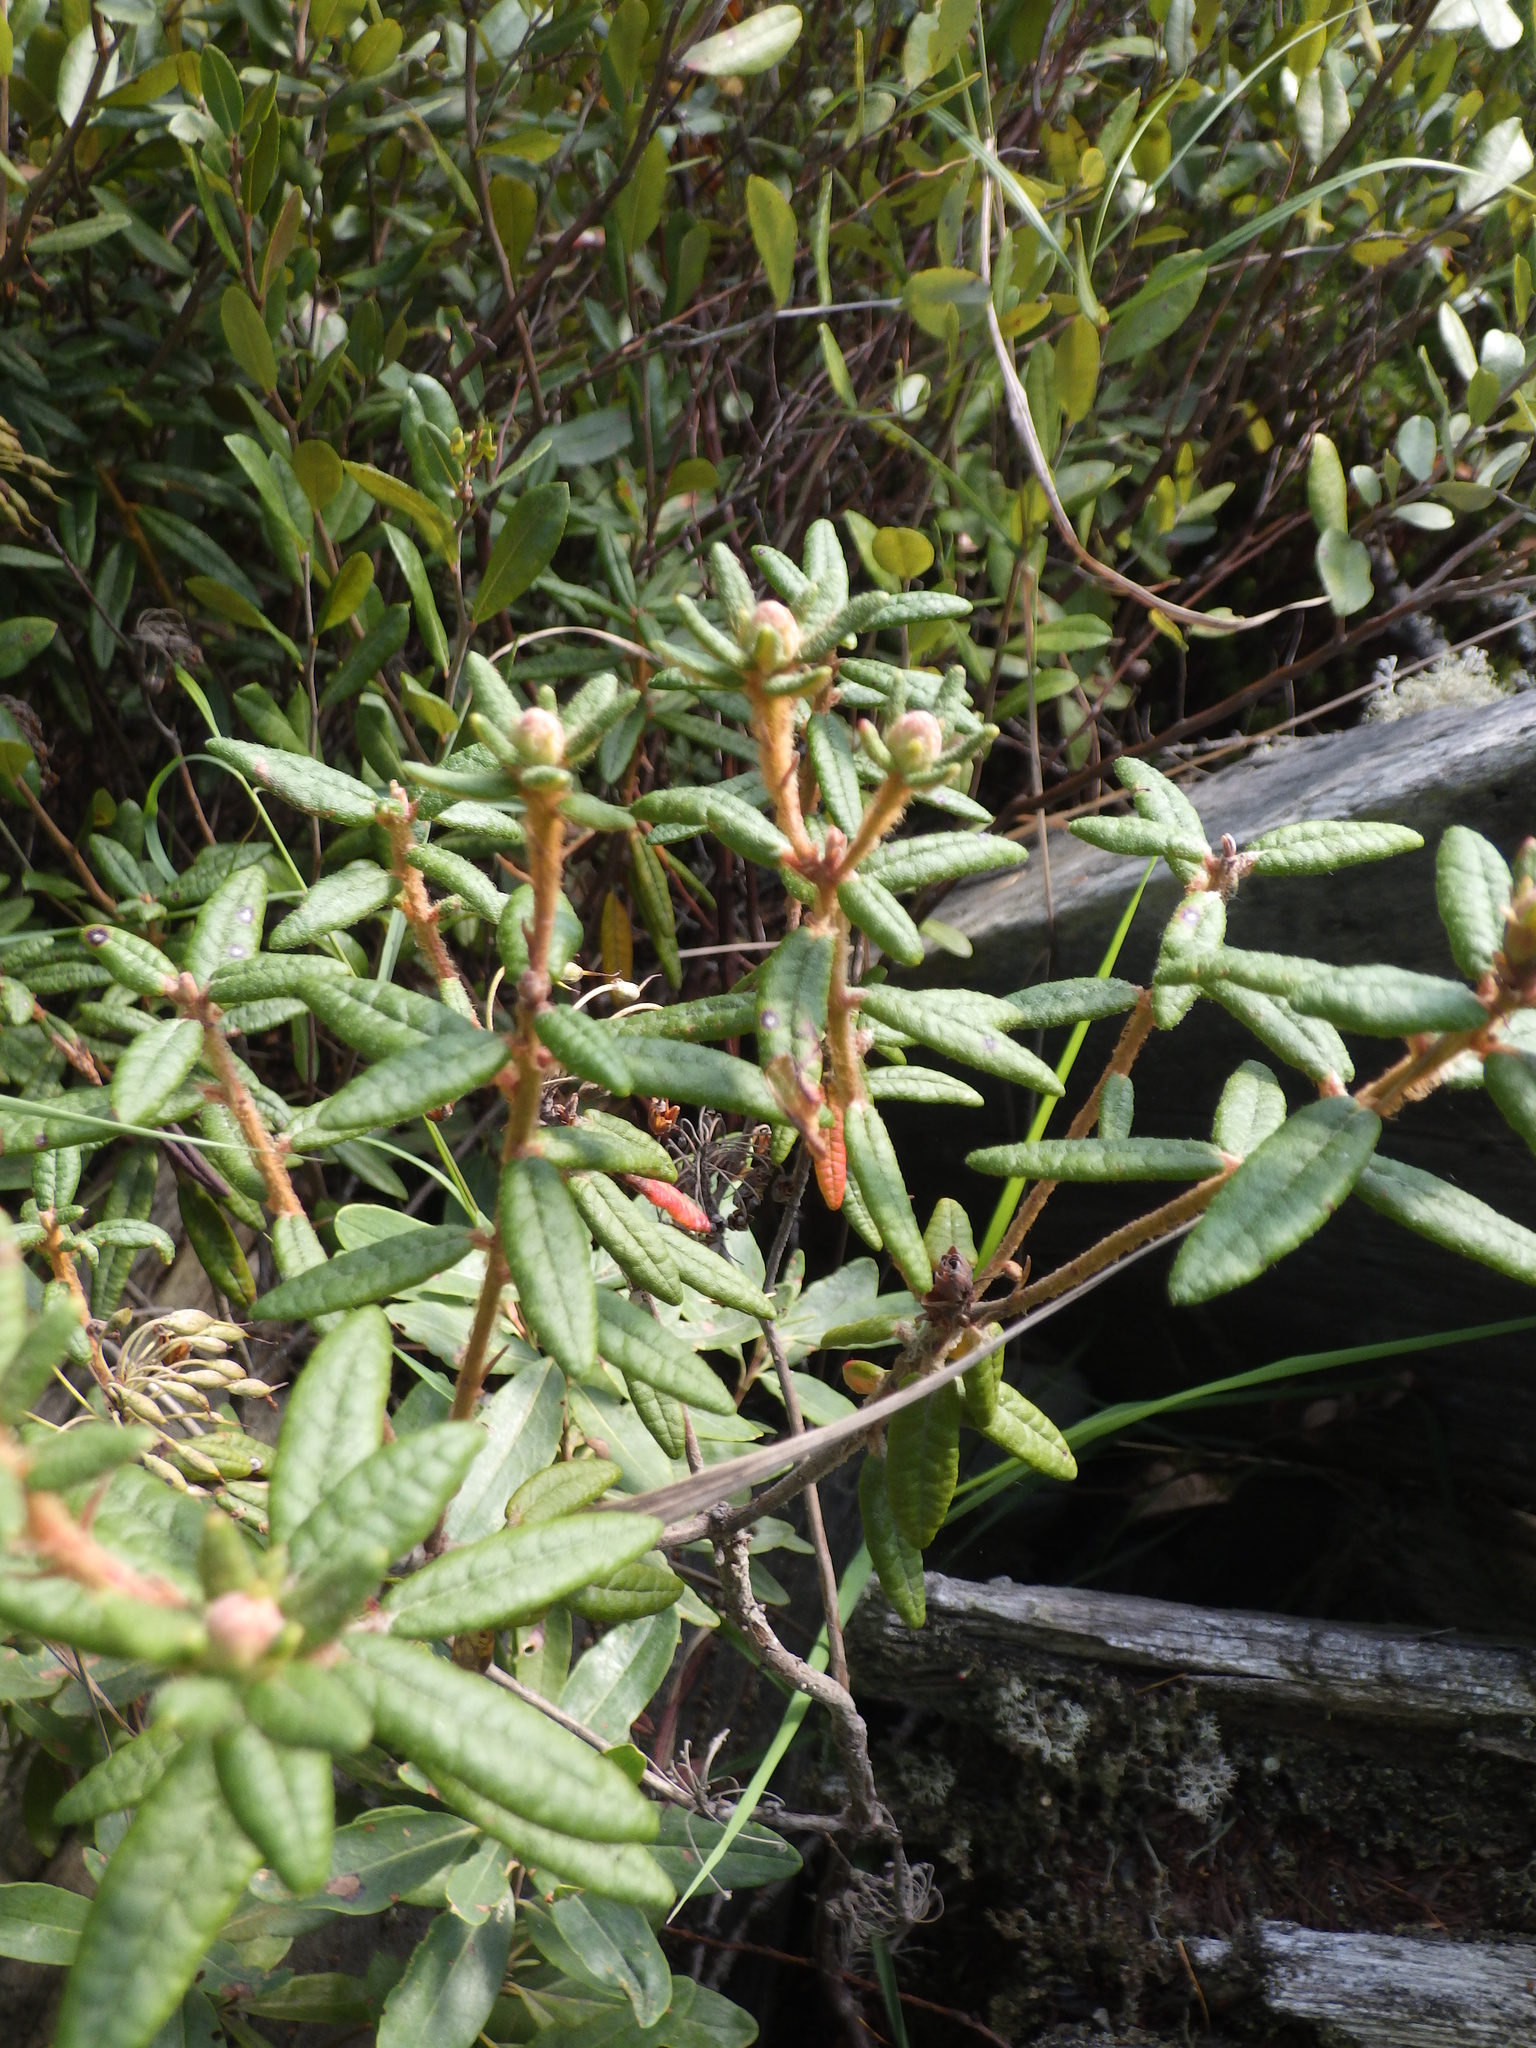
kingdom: Plantae
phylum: Tracheophyta
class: Magnoliopsida
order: Ericales
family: Ericaceae
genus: Rhododendron
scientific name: Rhododendron groenlandicum
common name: Bog labrador tea
